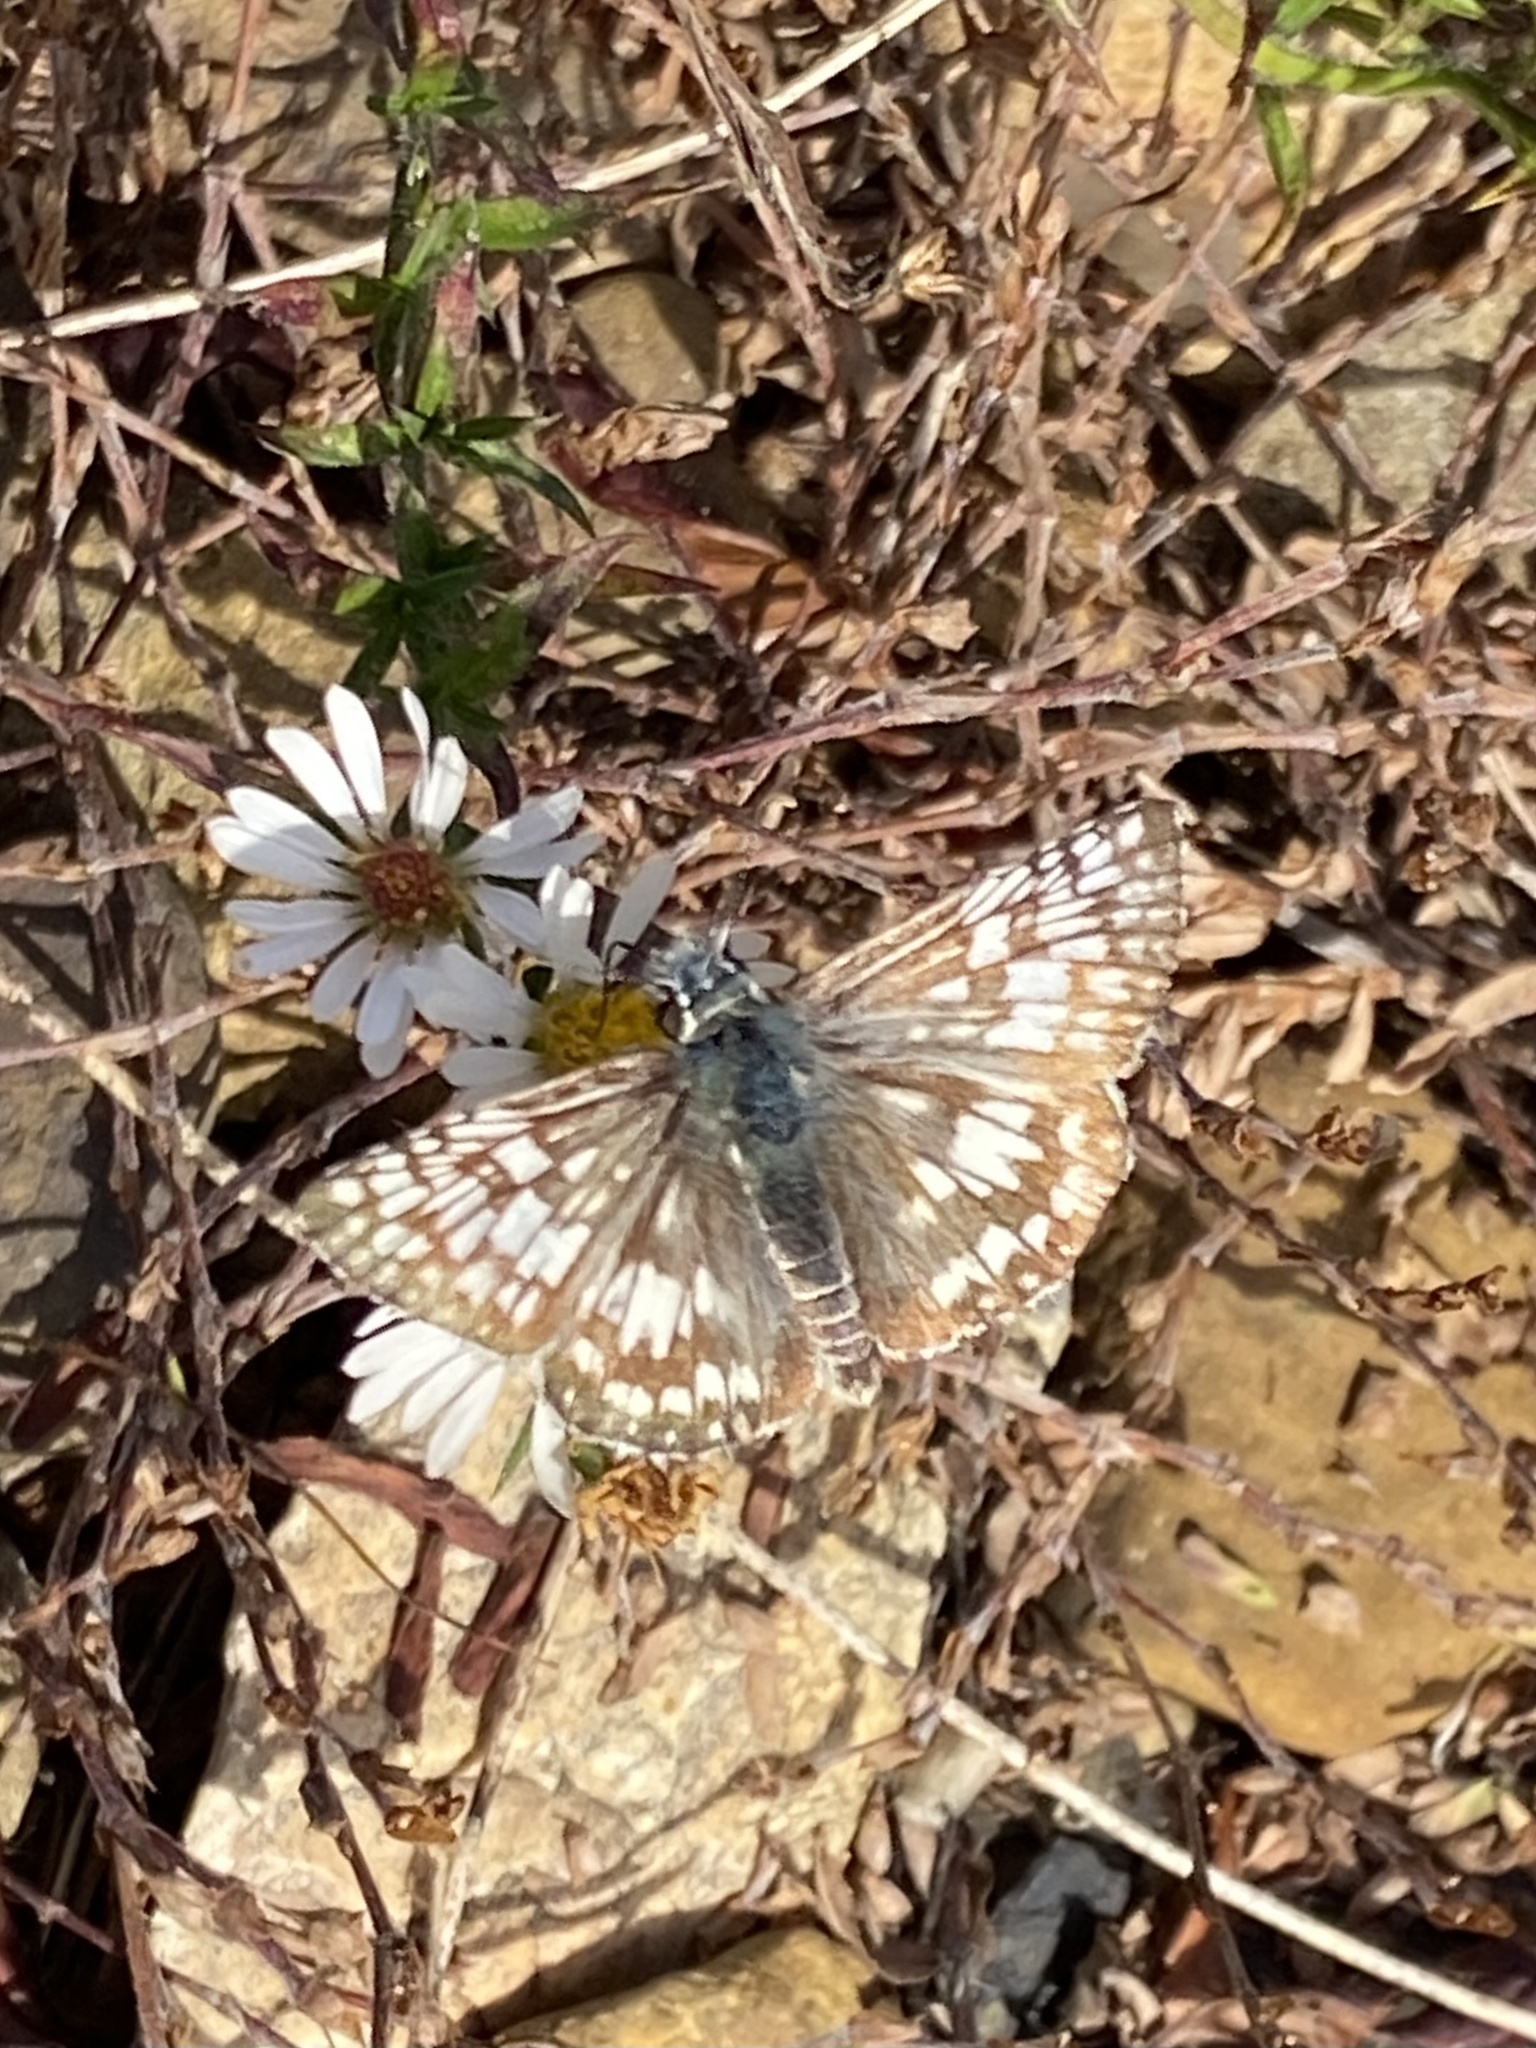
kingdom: Animalia
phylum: Arthropoda
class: Insecta
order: Lepidoptera
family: Hesperiidae
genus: Burnsius
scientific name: Burnsius communis
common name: Common checkered-skipper
